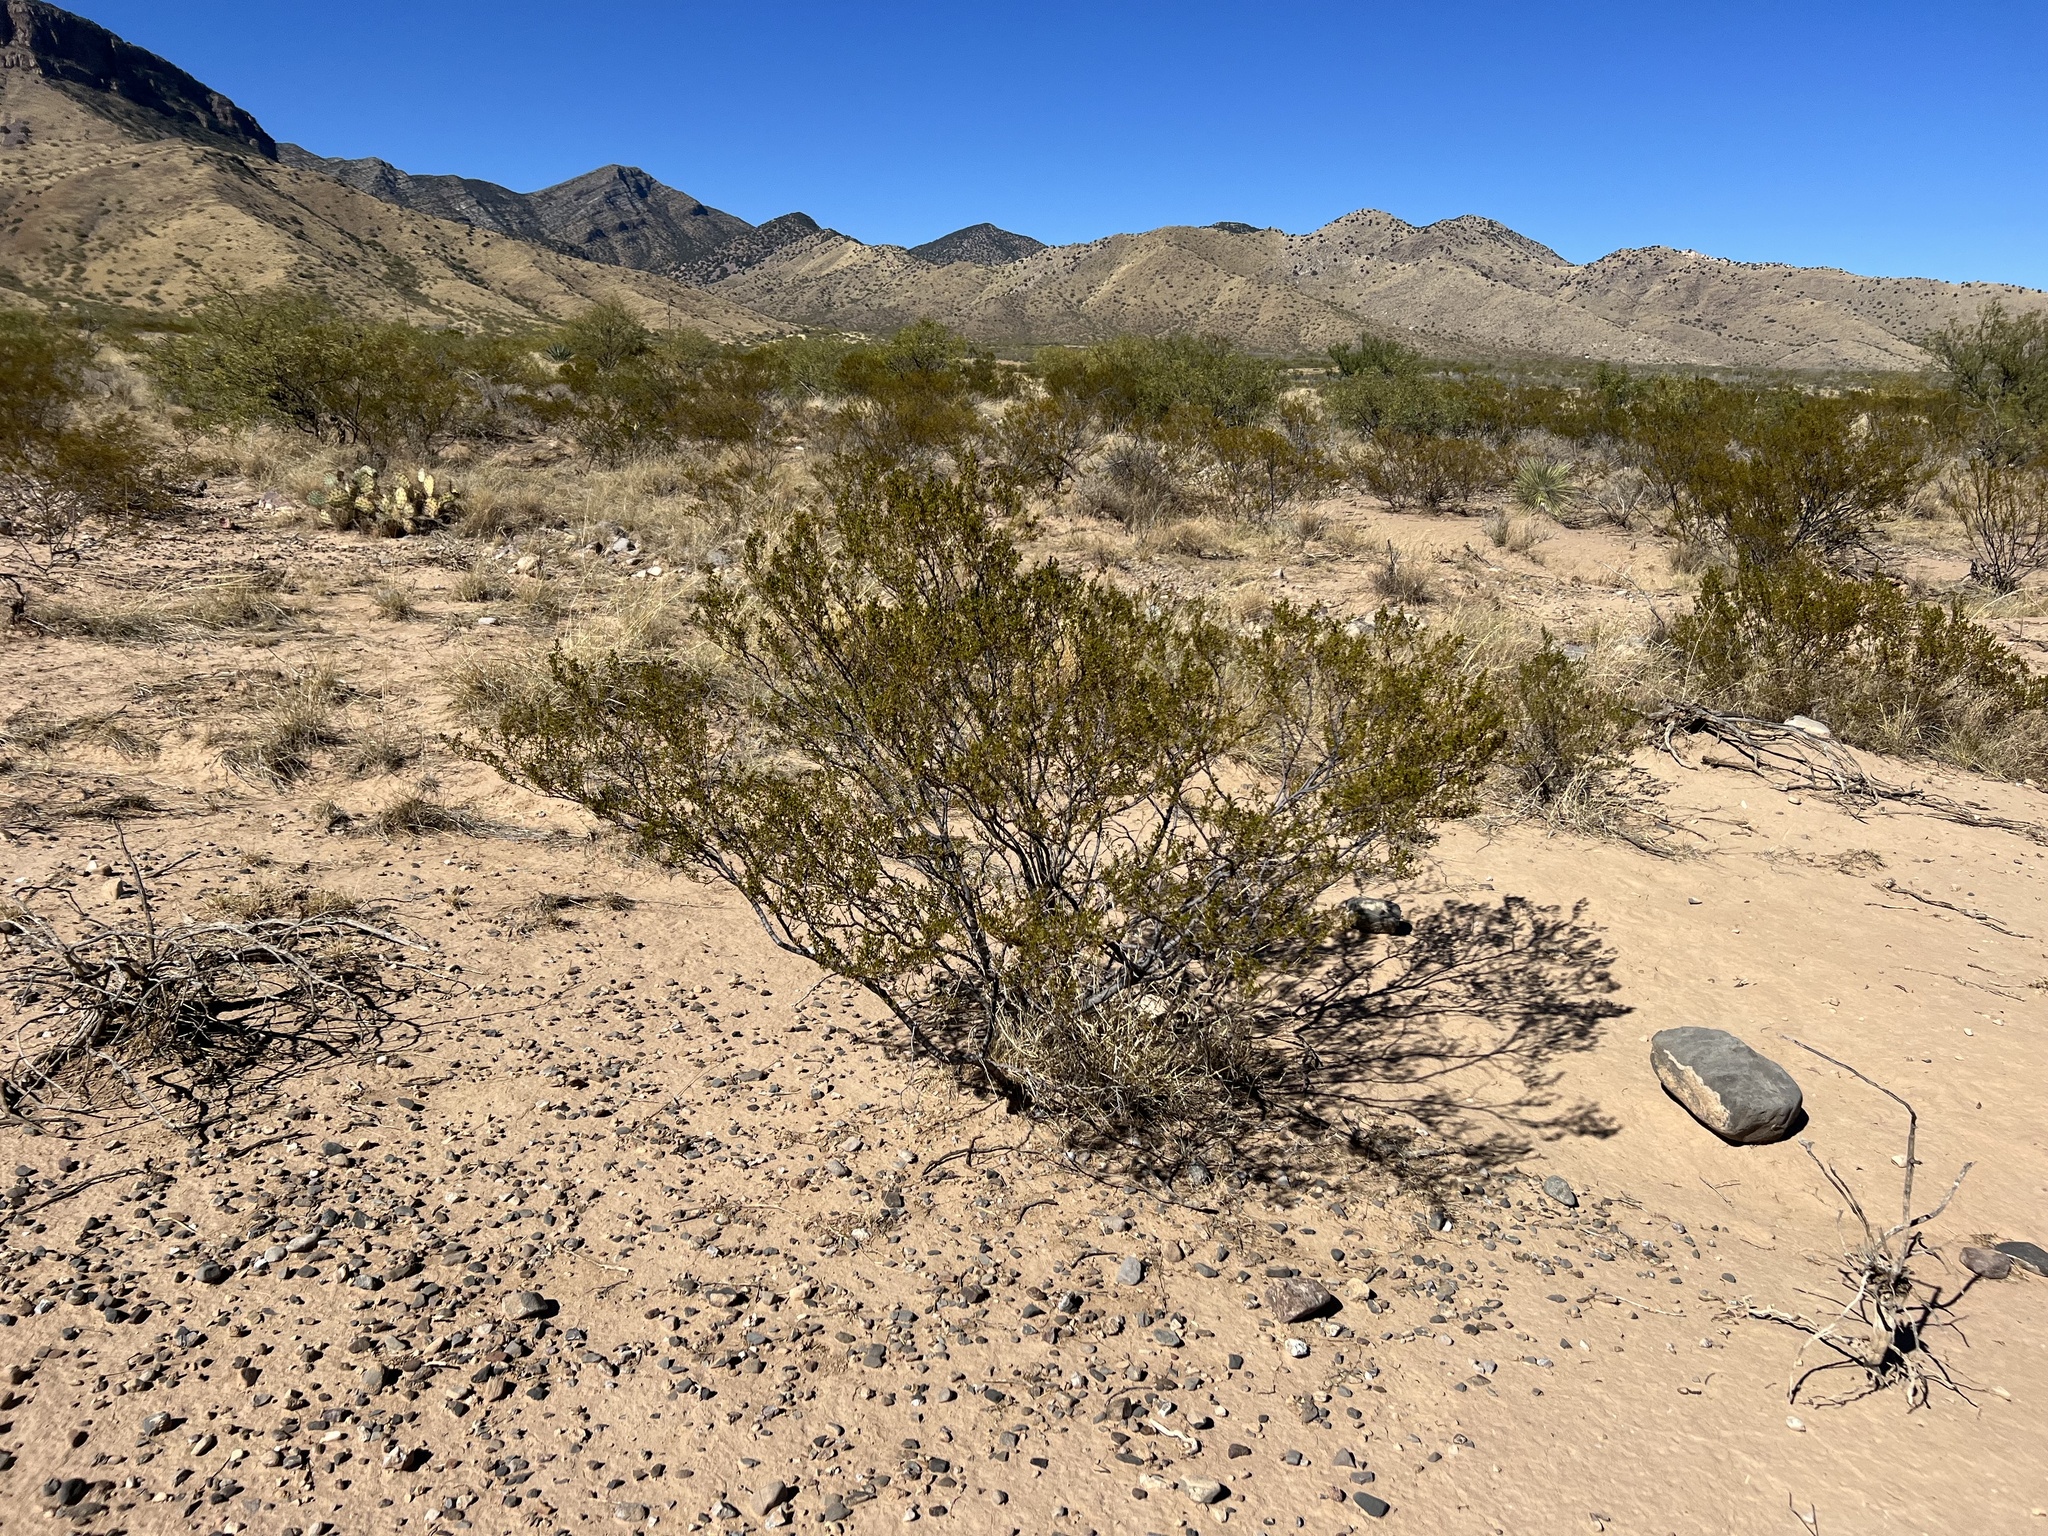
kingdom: Plantae
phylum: Tracheophyta
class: Magnoliopsida
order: Zygophyllales
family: Zygophyllaceae
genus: Larrea
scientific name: Larrea tridentata
